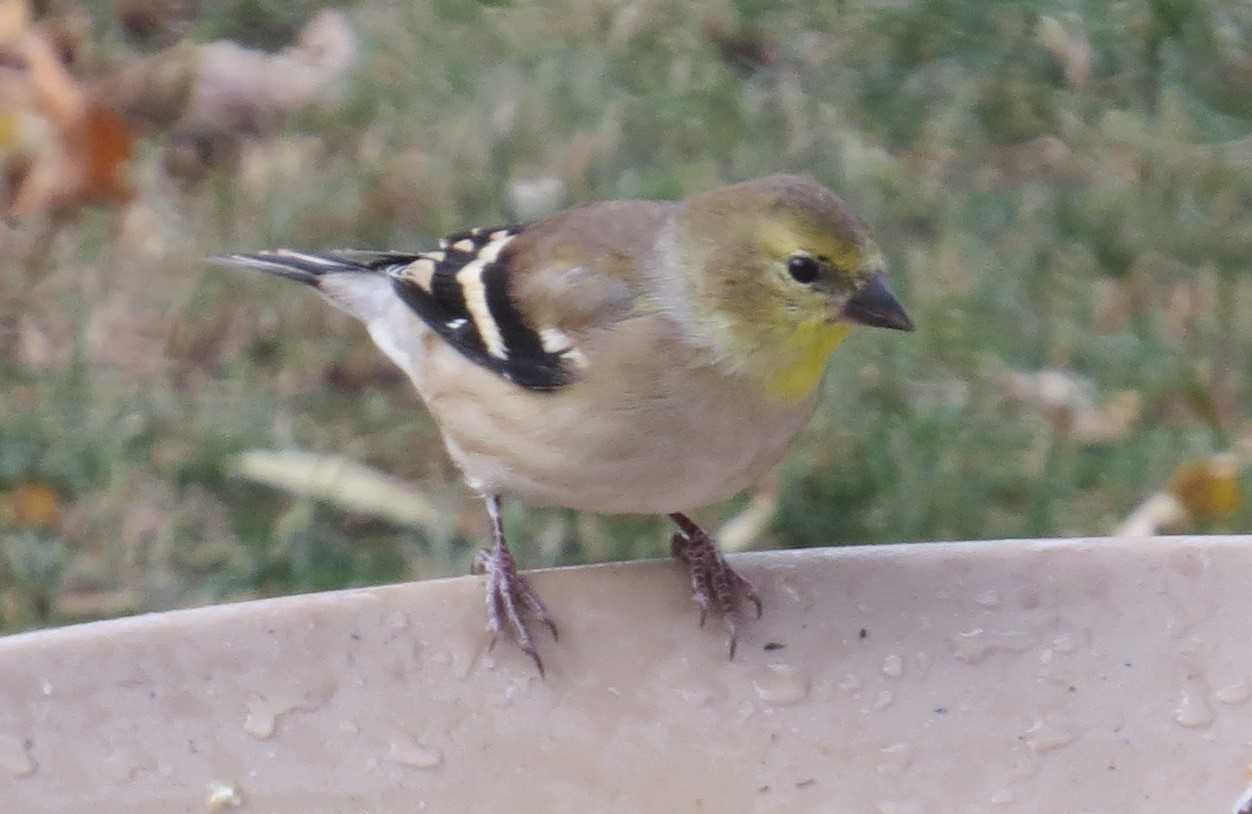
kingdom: Animalia
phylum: Chordata
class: Aves
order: Passeriformes
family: Fringillidae
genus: Spinus
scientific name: Spinus tristis
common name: American goldfinch
